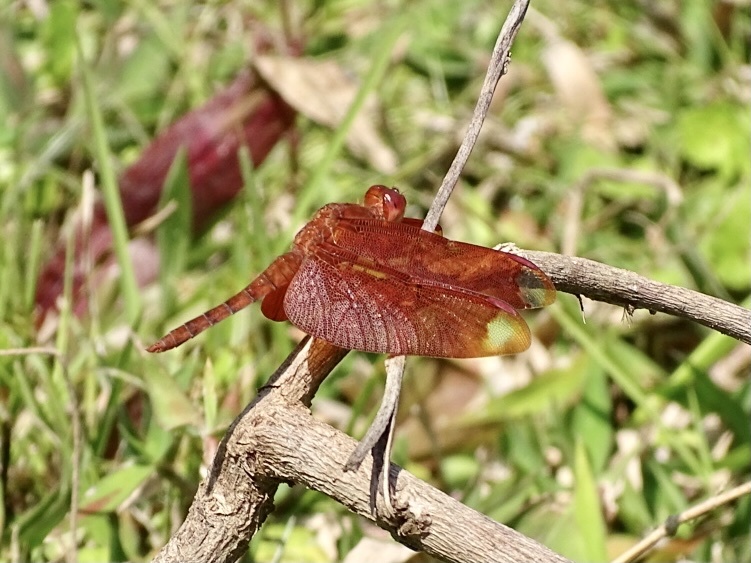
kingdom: Animalia
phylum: Arthropoda
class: Insecta
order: Odonata
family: Libellulidae
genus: Neurothemis
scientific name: Neurothemis fulvia
